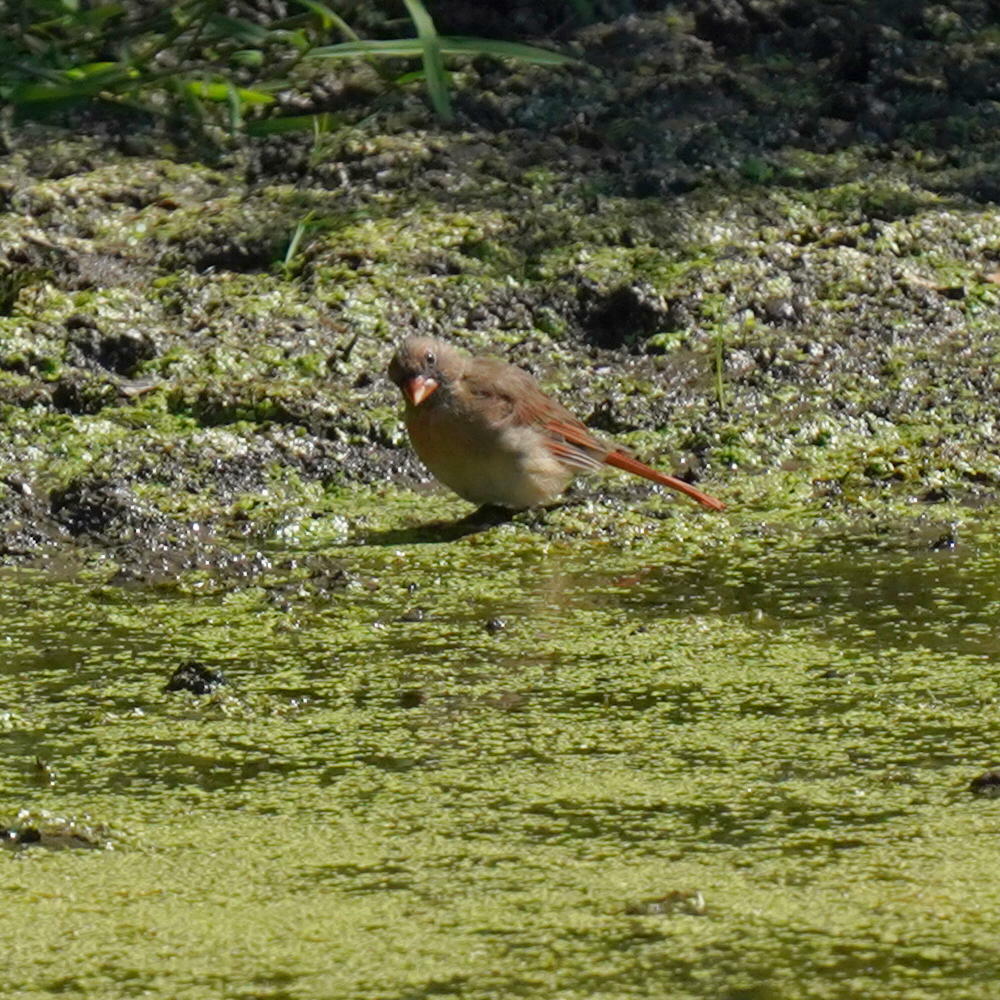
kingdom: Animalia
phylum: Chordata
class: Aves
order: Passeriformes
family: Cardinalidae
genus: Cardinalis
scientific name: Cardinalis cardinalis
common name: Northern cardinal
